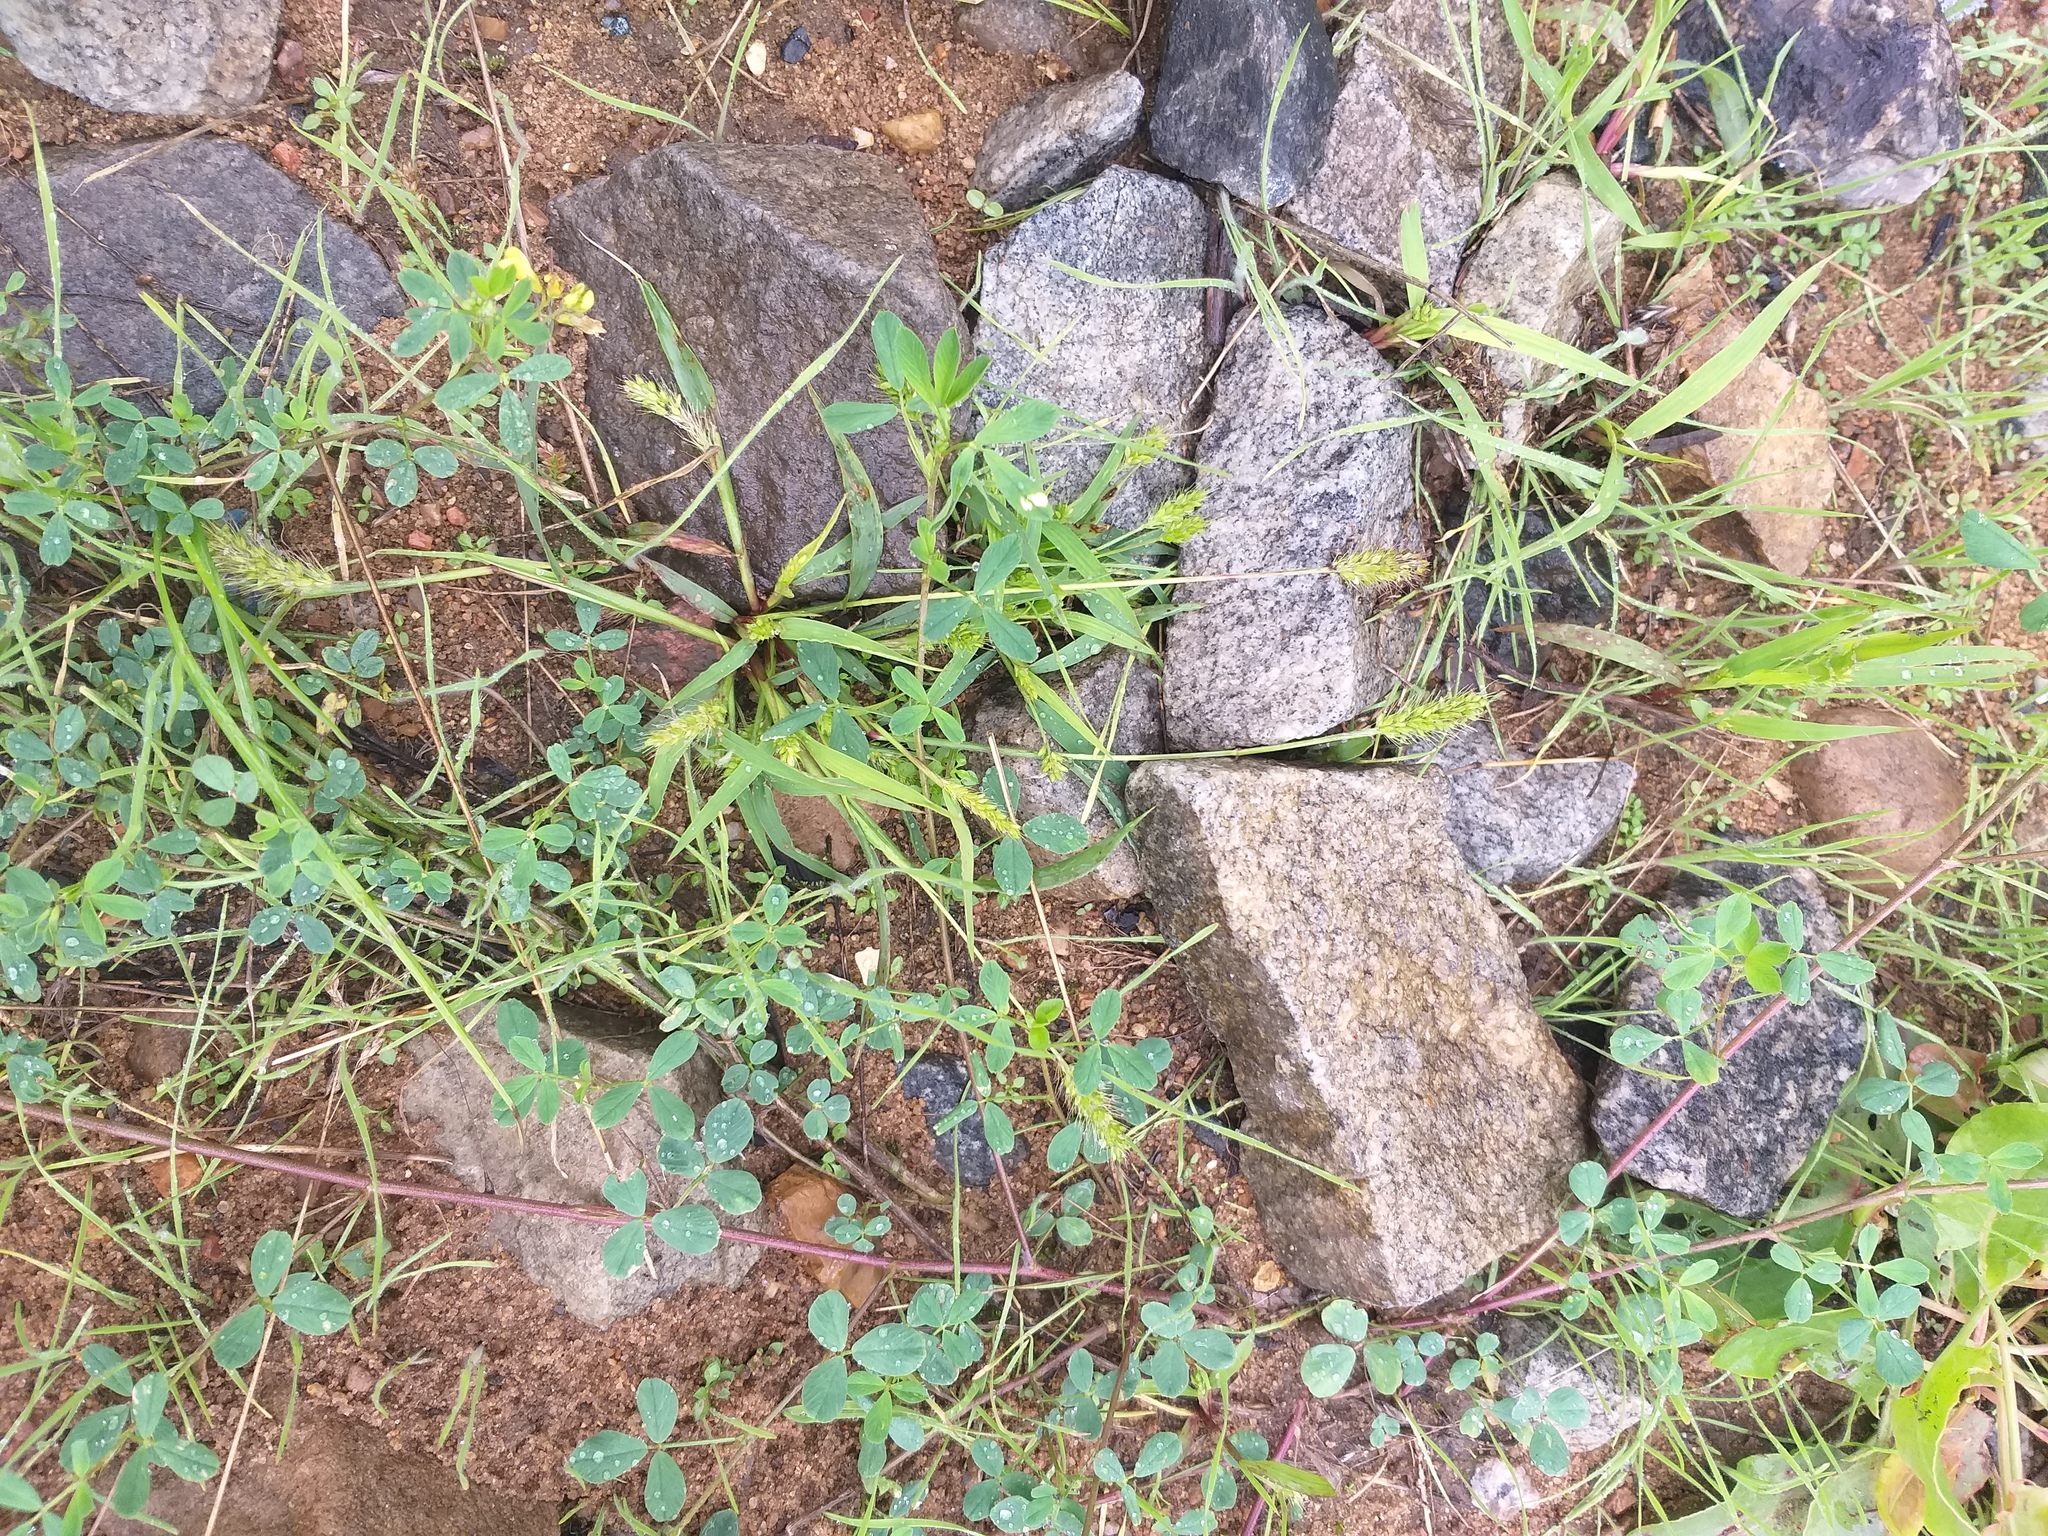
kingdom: Plantae
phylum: Tracheophyta
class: Liliopsida
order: Poales
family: Poaceae
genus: Setaria
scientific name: Setaria viridis
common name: Green bristlegrass
